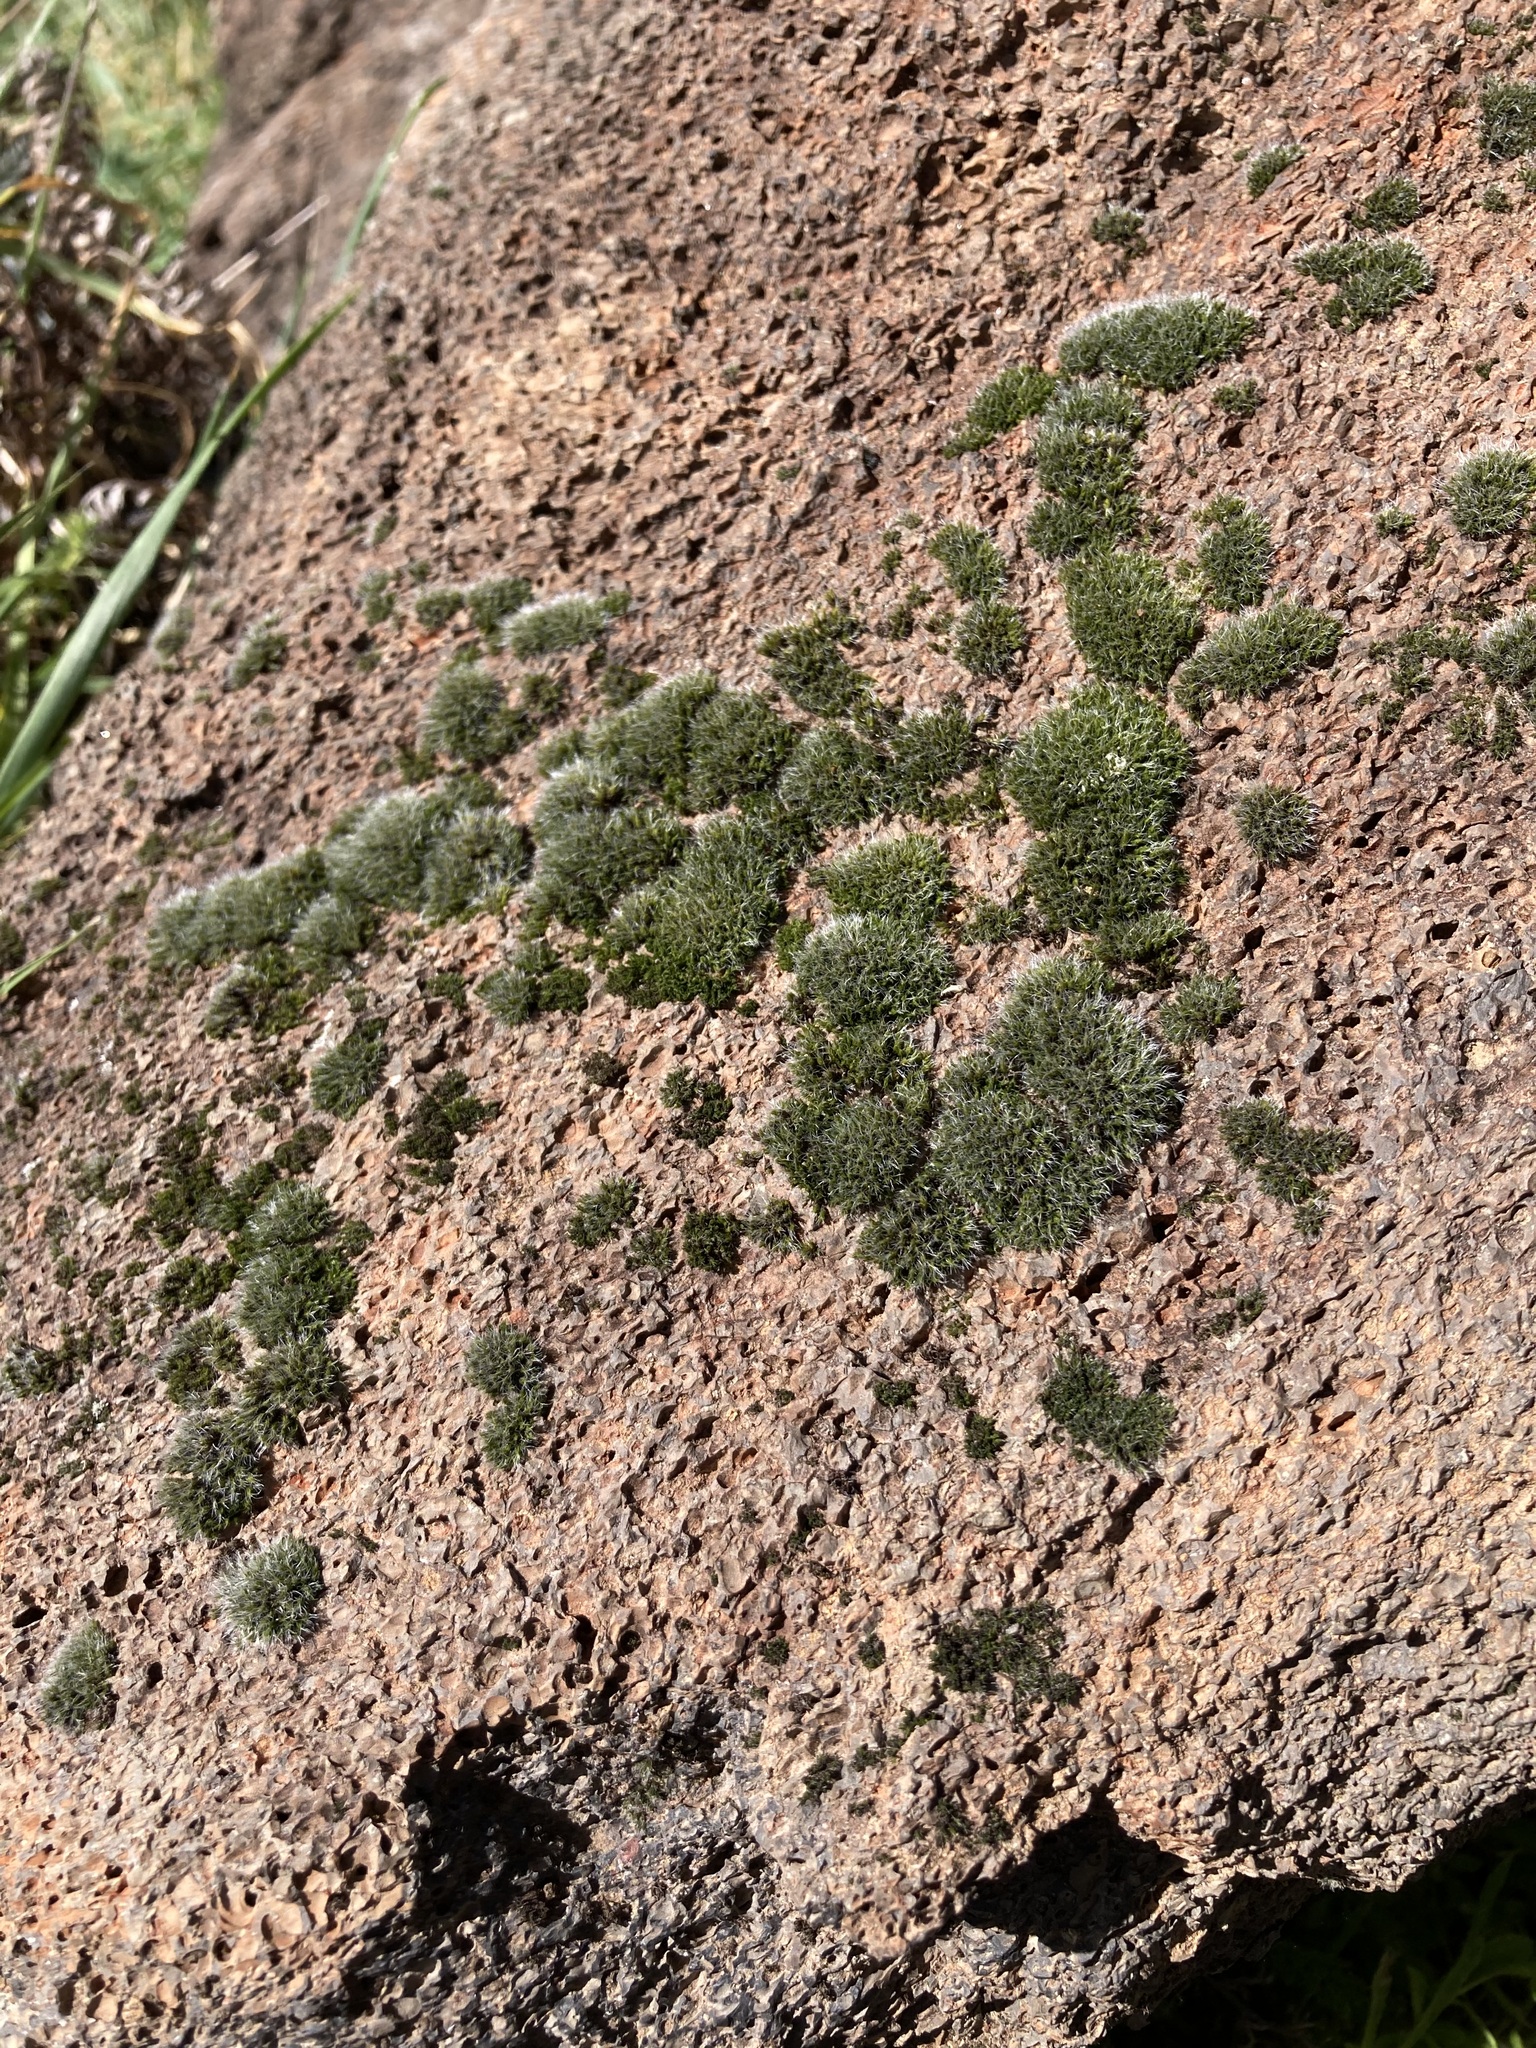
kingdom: Plantae
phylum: Bryophyta
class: Bryopsida
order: Grimmiales
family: Grimmiaceae
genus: Grimmia
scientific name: Grimmia pulvinata
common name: Grey-cushioned grimmia
